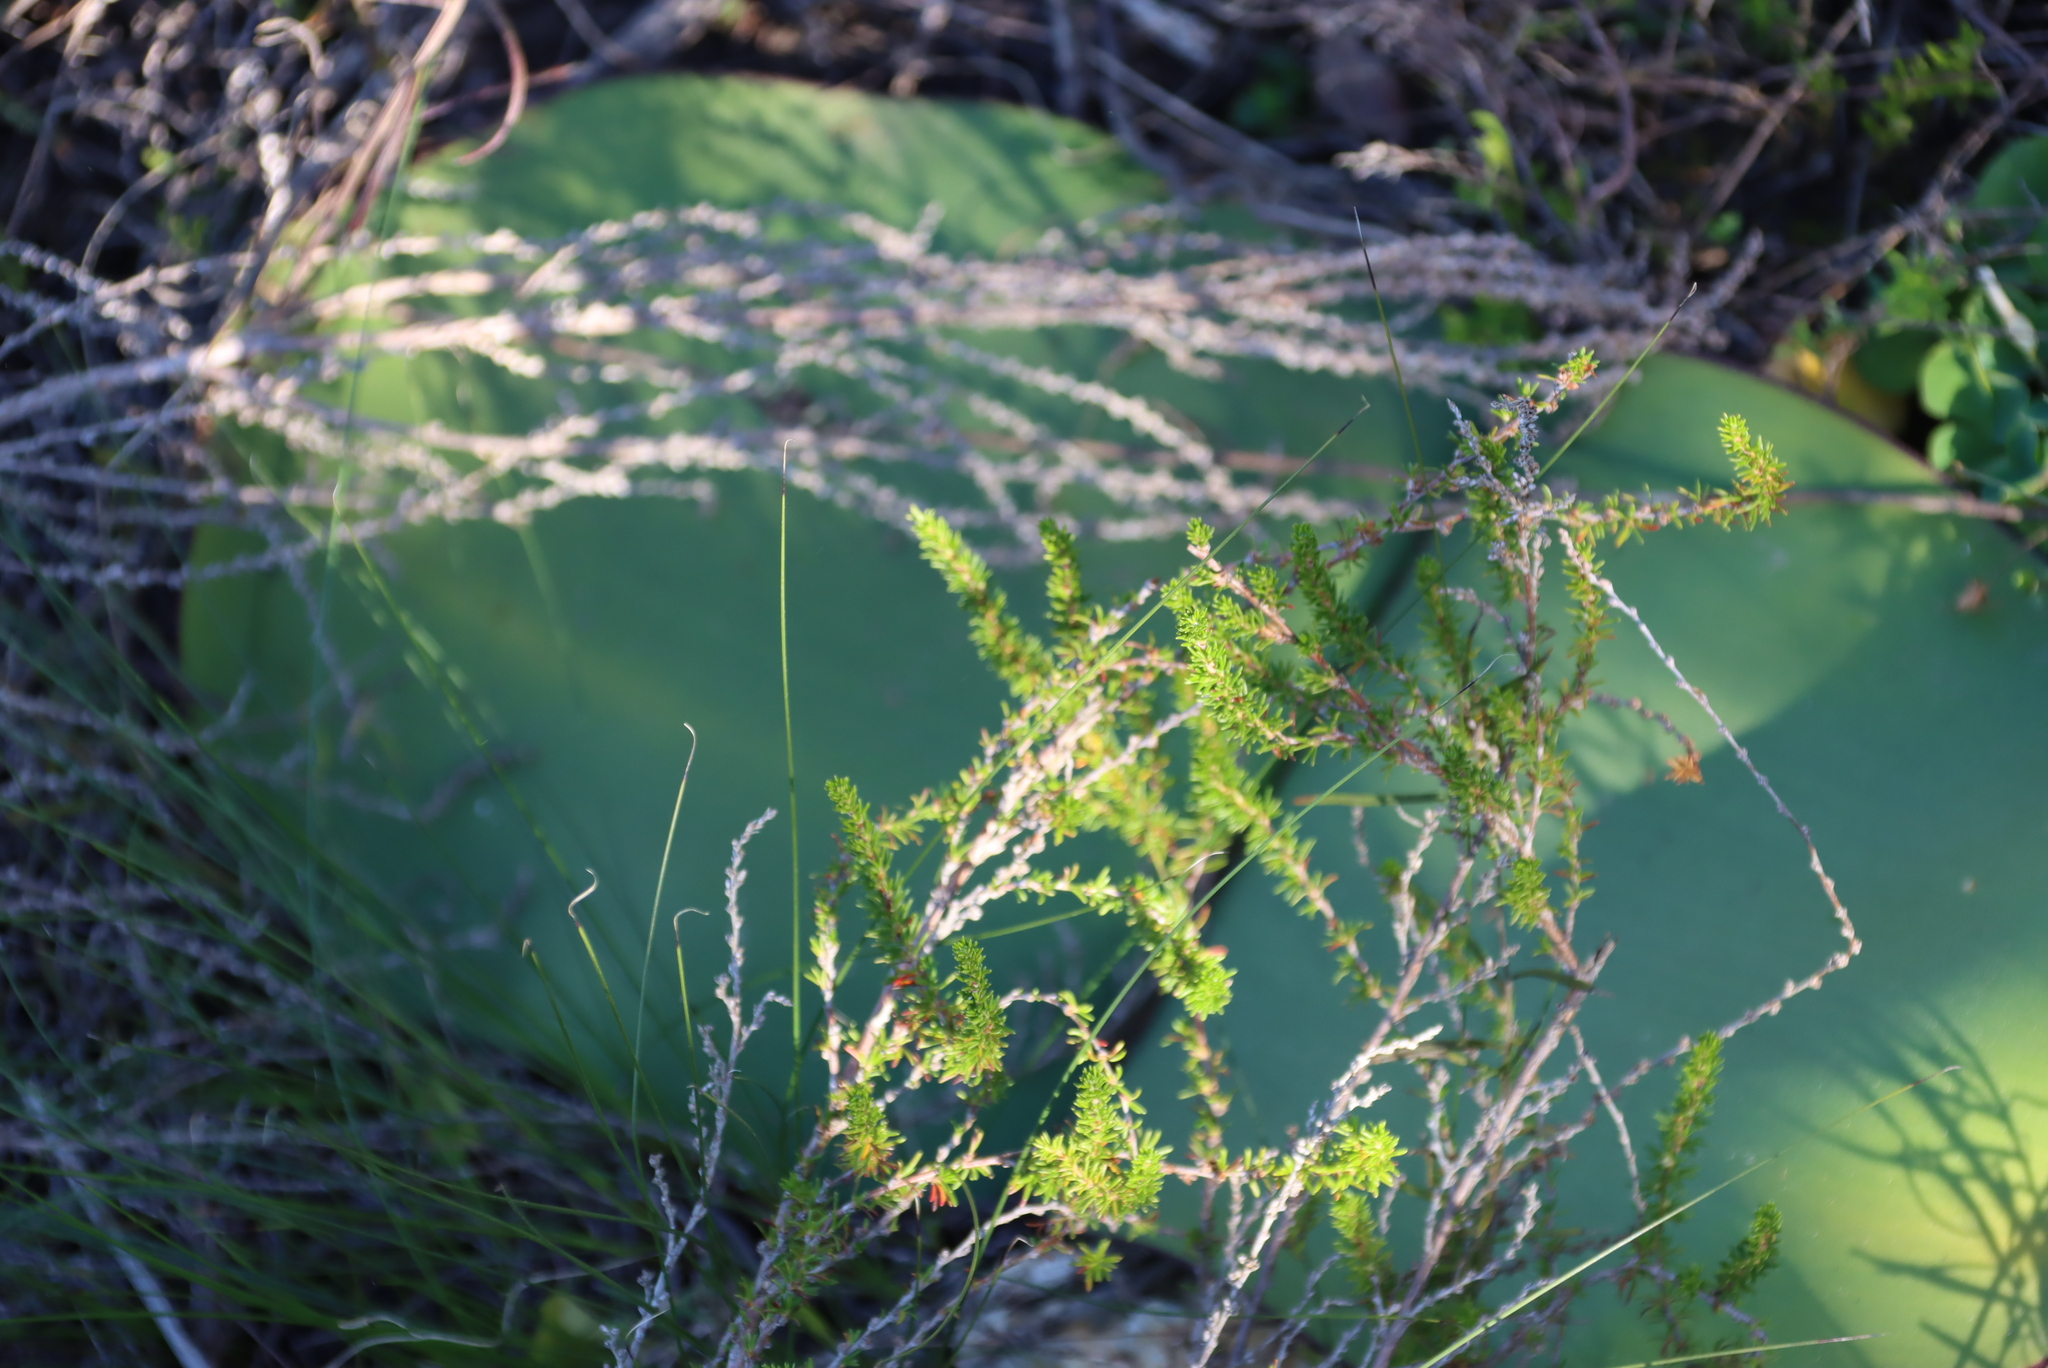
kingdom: Plantae
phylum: Tracheophyta
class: Liliopsida
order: Asparagales
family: Amaryllidaceae
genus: Haemanthus
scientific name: Haemanthus sanguineus
